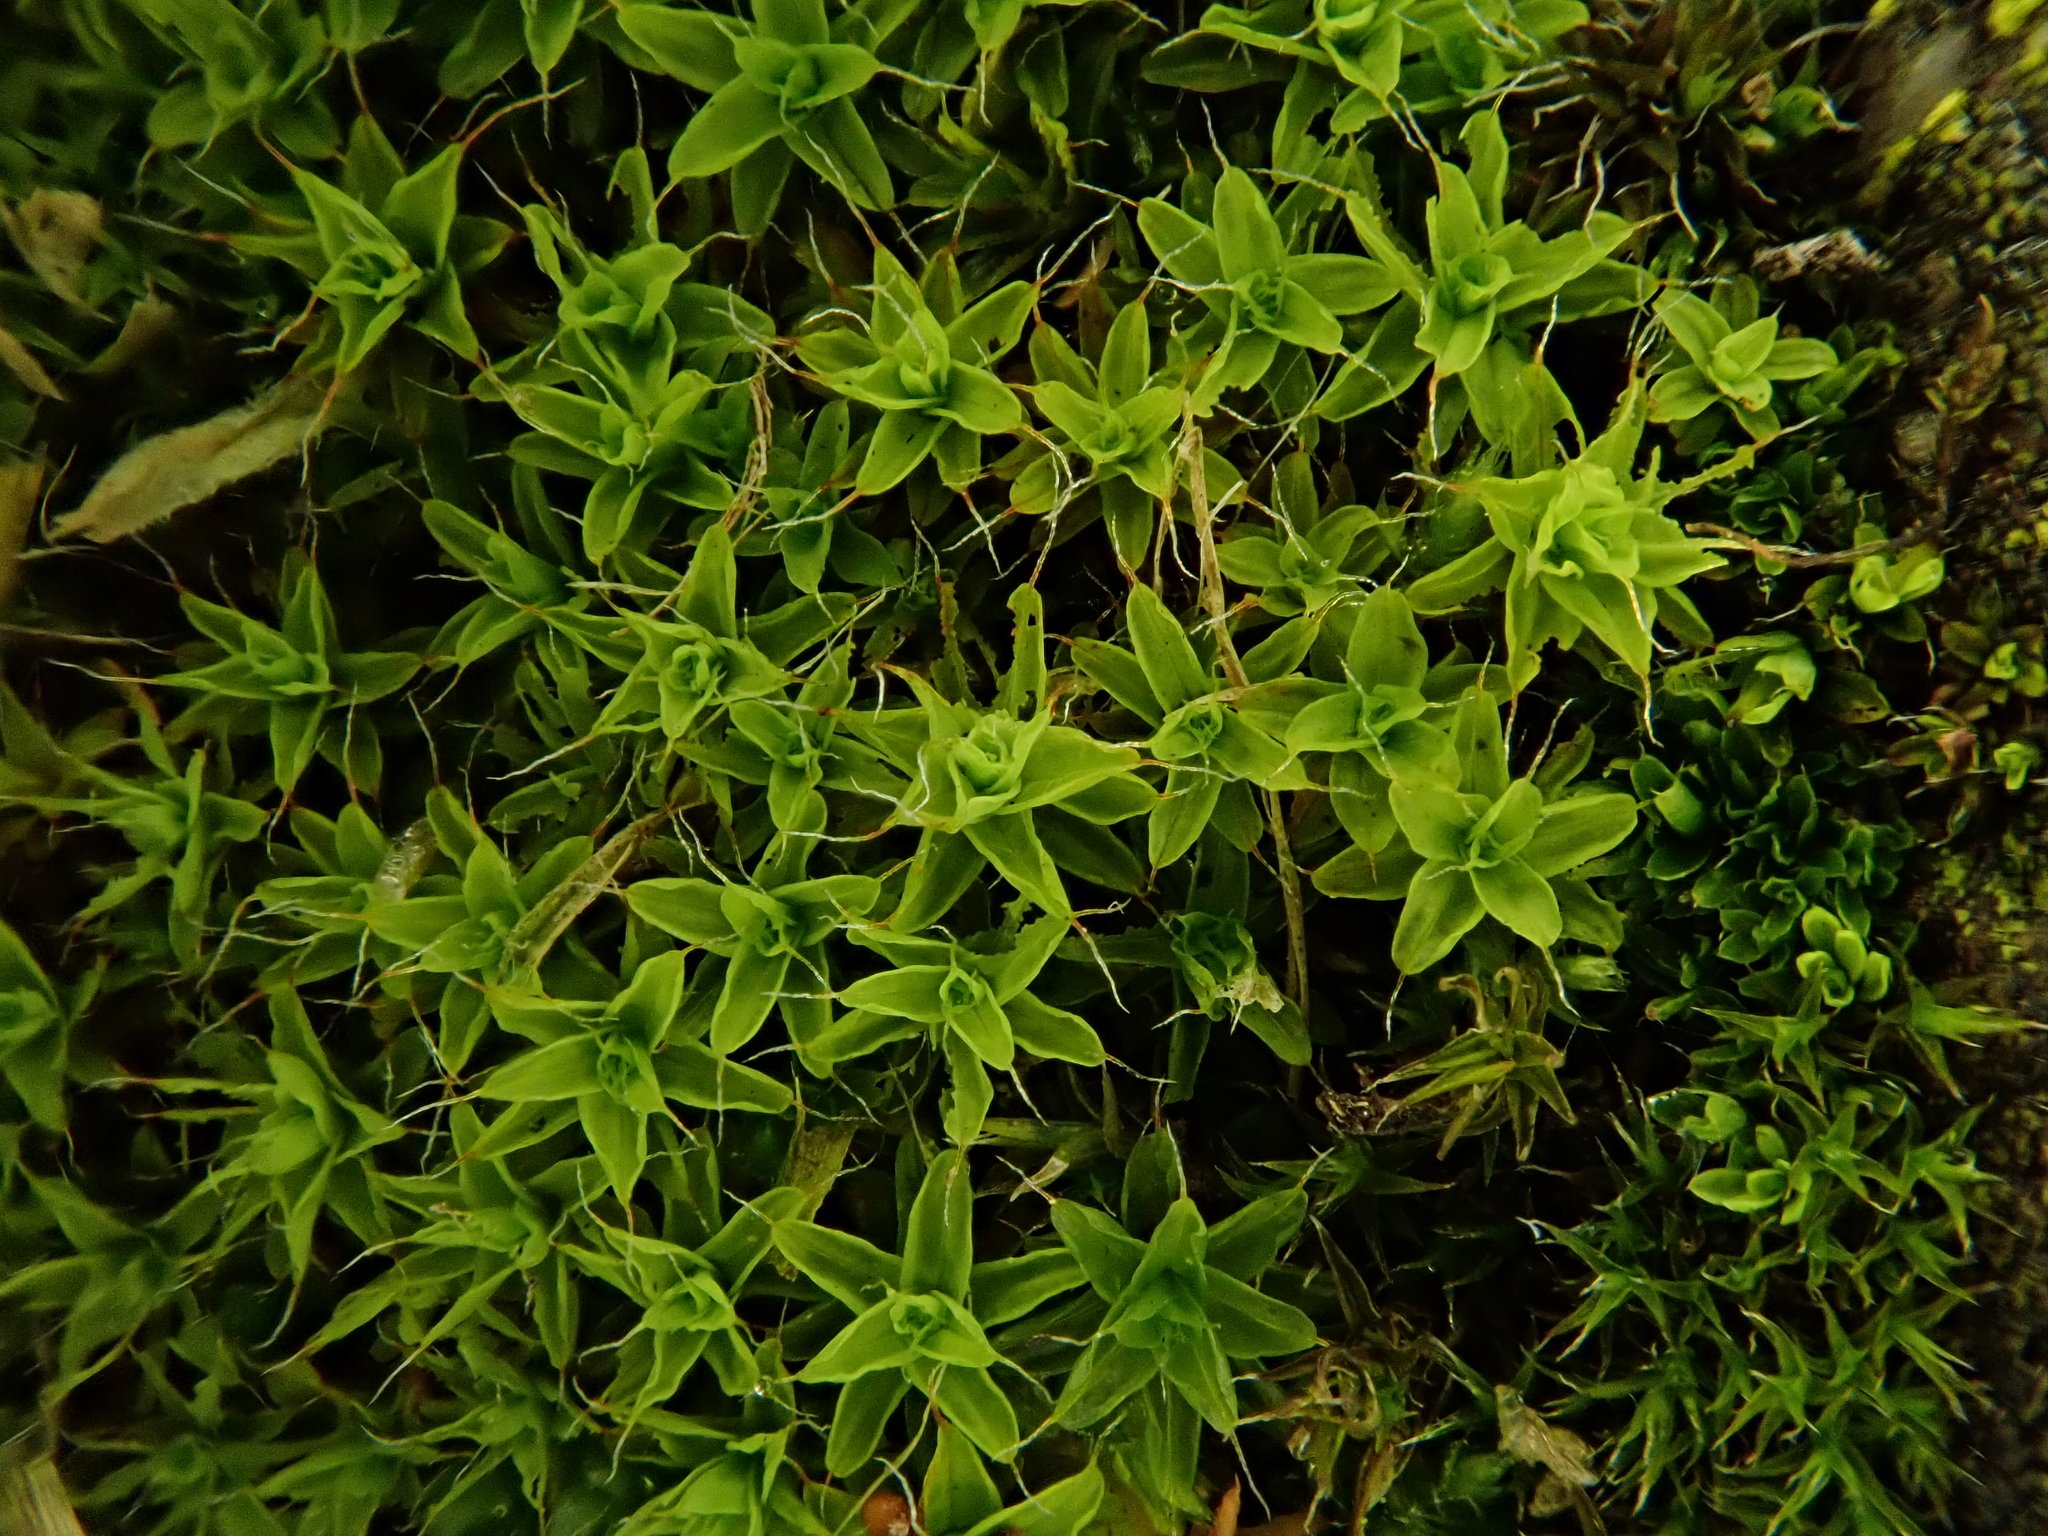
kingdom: Plantae
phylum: Bryophyta
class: Bryopsida
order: Pottiales
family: Pottiaceae
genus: Syntrichia
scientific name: Syntrichia ruralis
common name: Sidewalk screw moss
